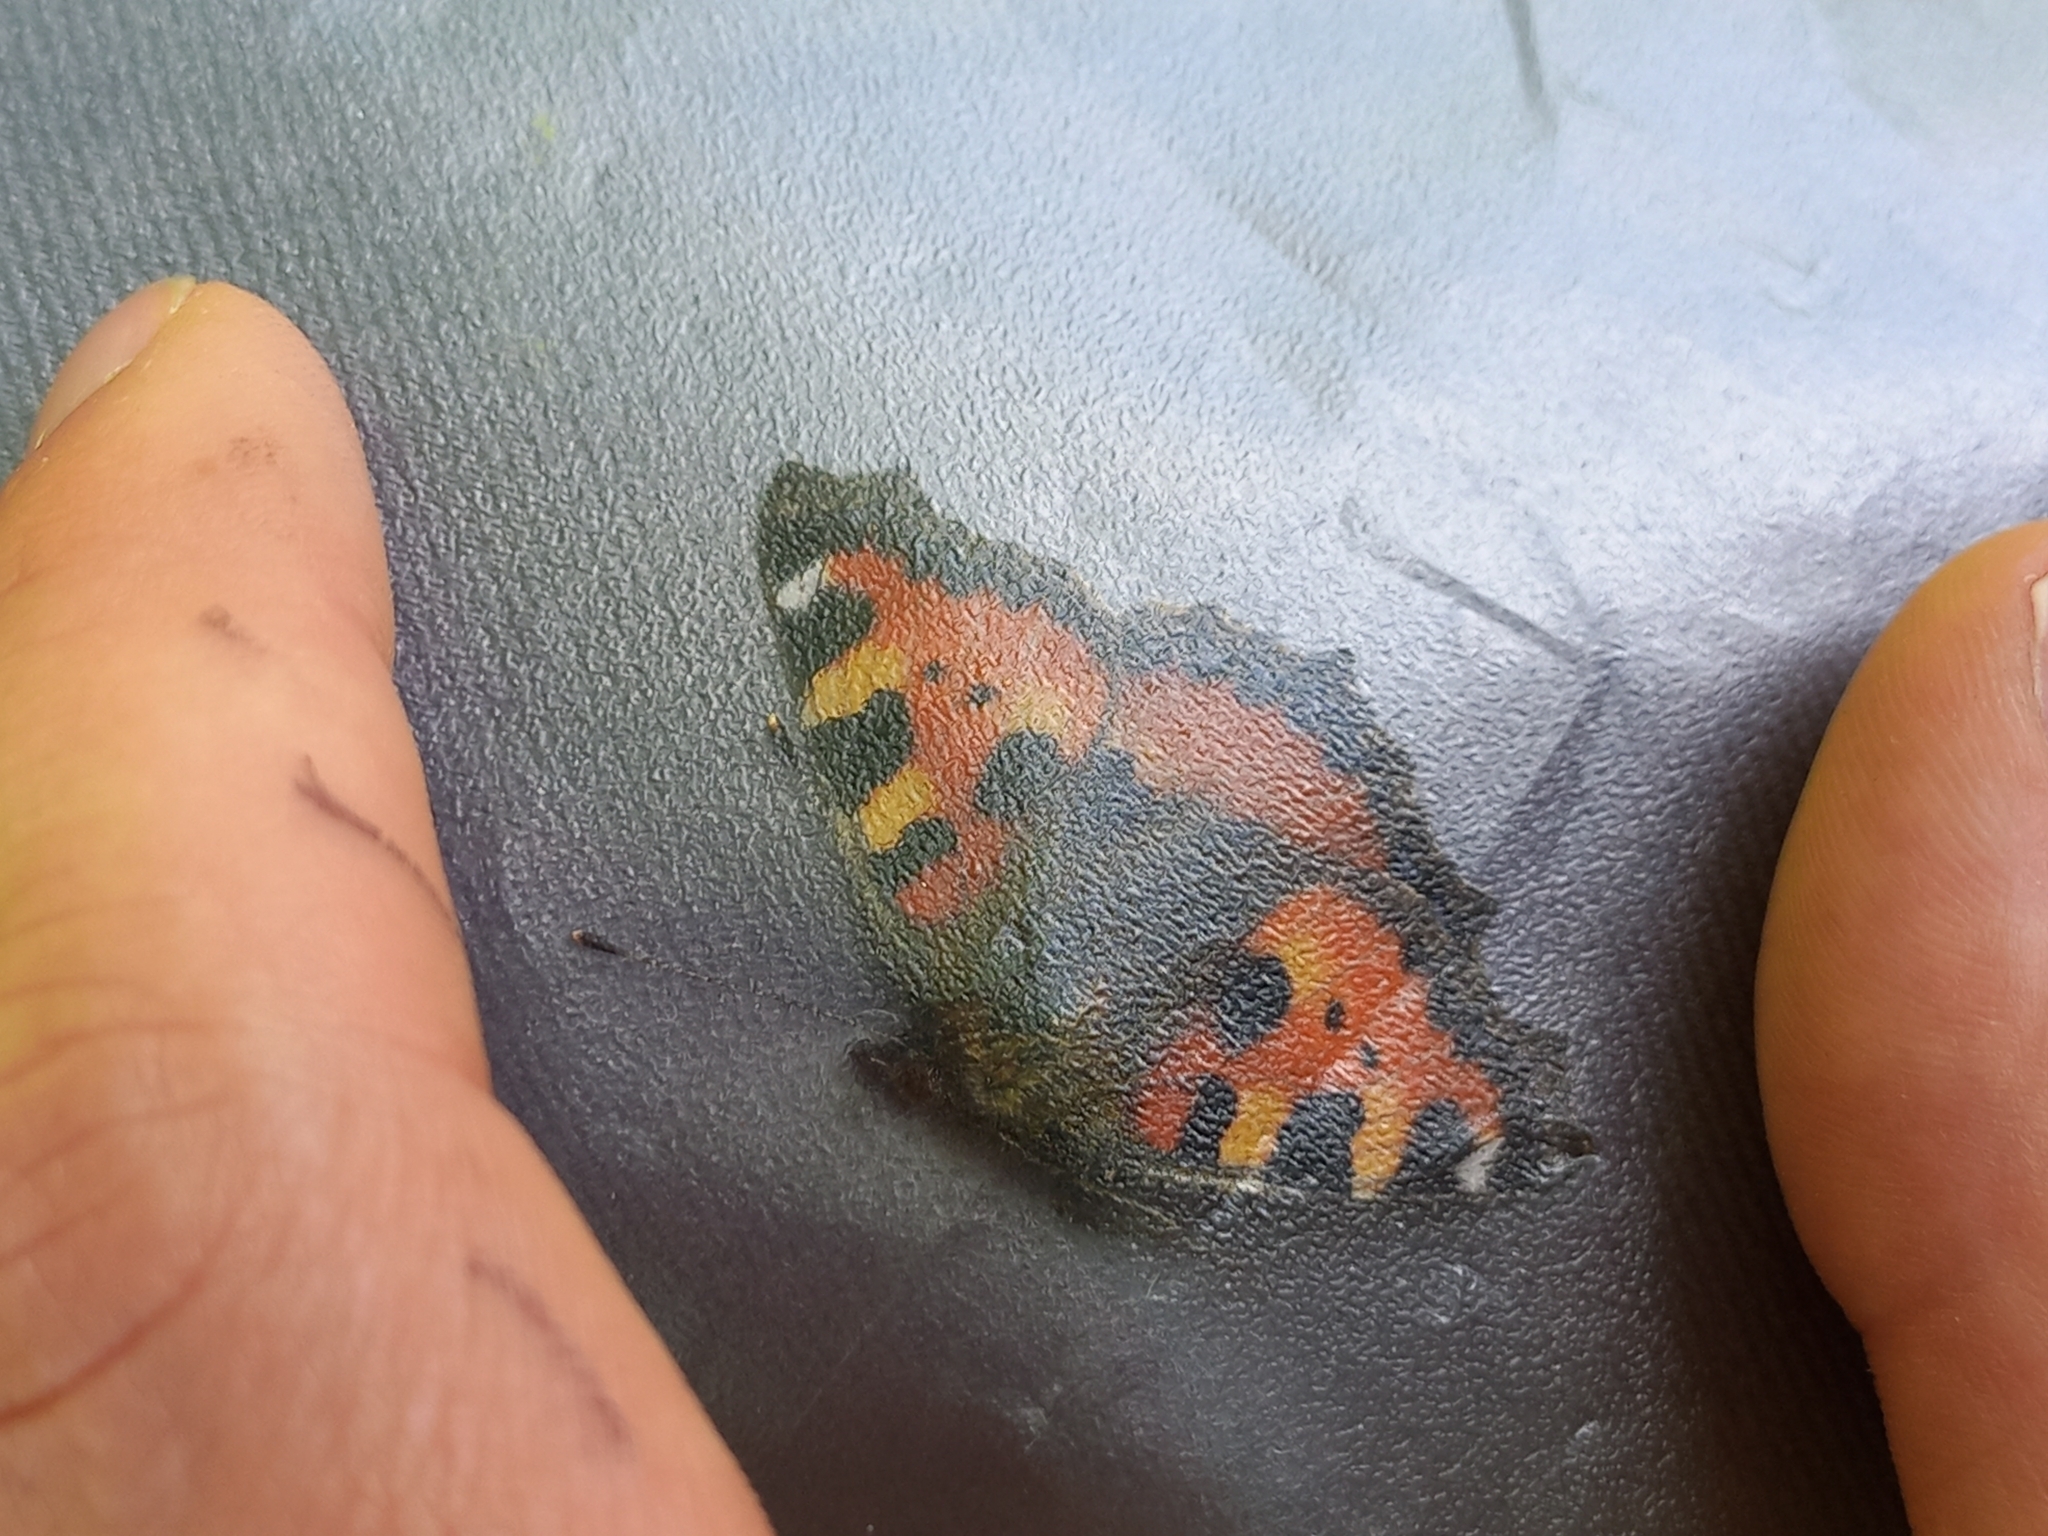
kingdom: Animalia
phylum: Arthropoda
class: Insecta
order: Lepidoptera
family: Nymphalidae
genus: Aglais
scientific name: Aglais urticae
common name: Small tortoiseshell
